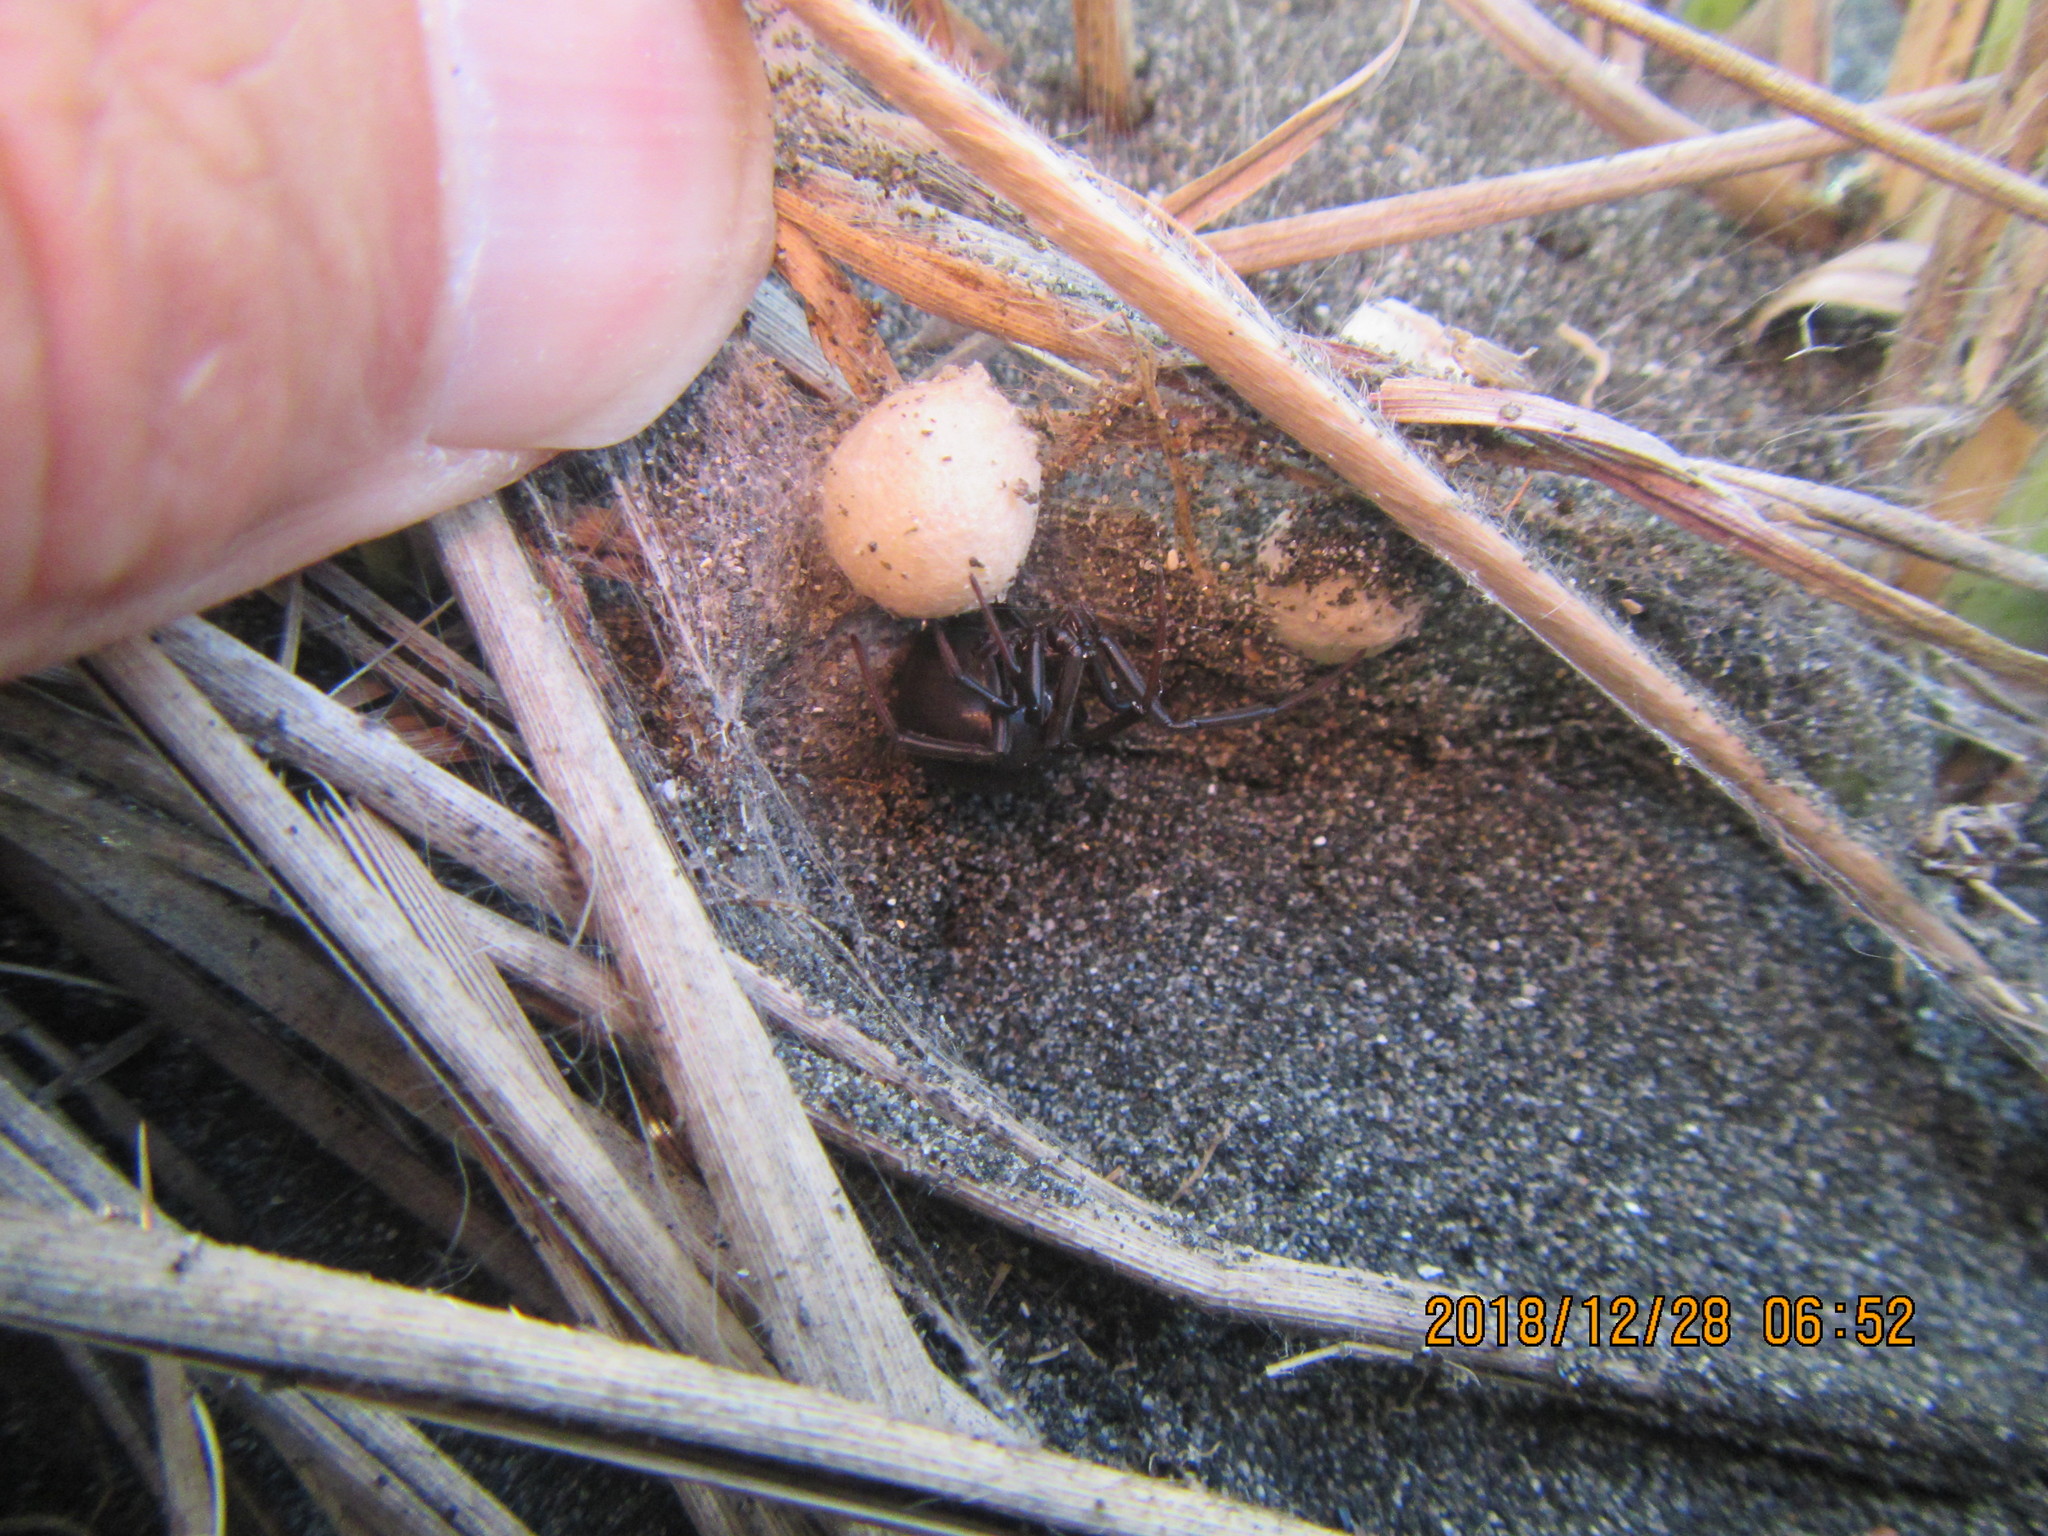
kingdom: Animalia
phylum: Arthropoda
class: Arachnida
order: Araneae
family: Theridiidae
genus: Latrodectus
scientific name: Latrodectus katipo
